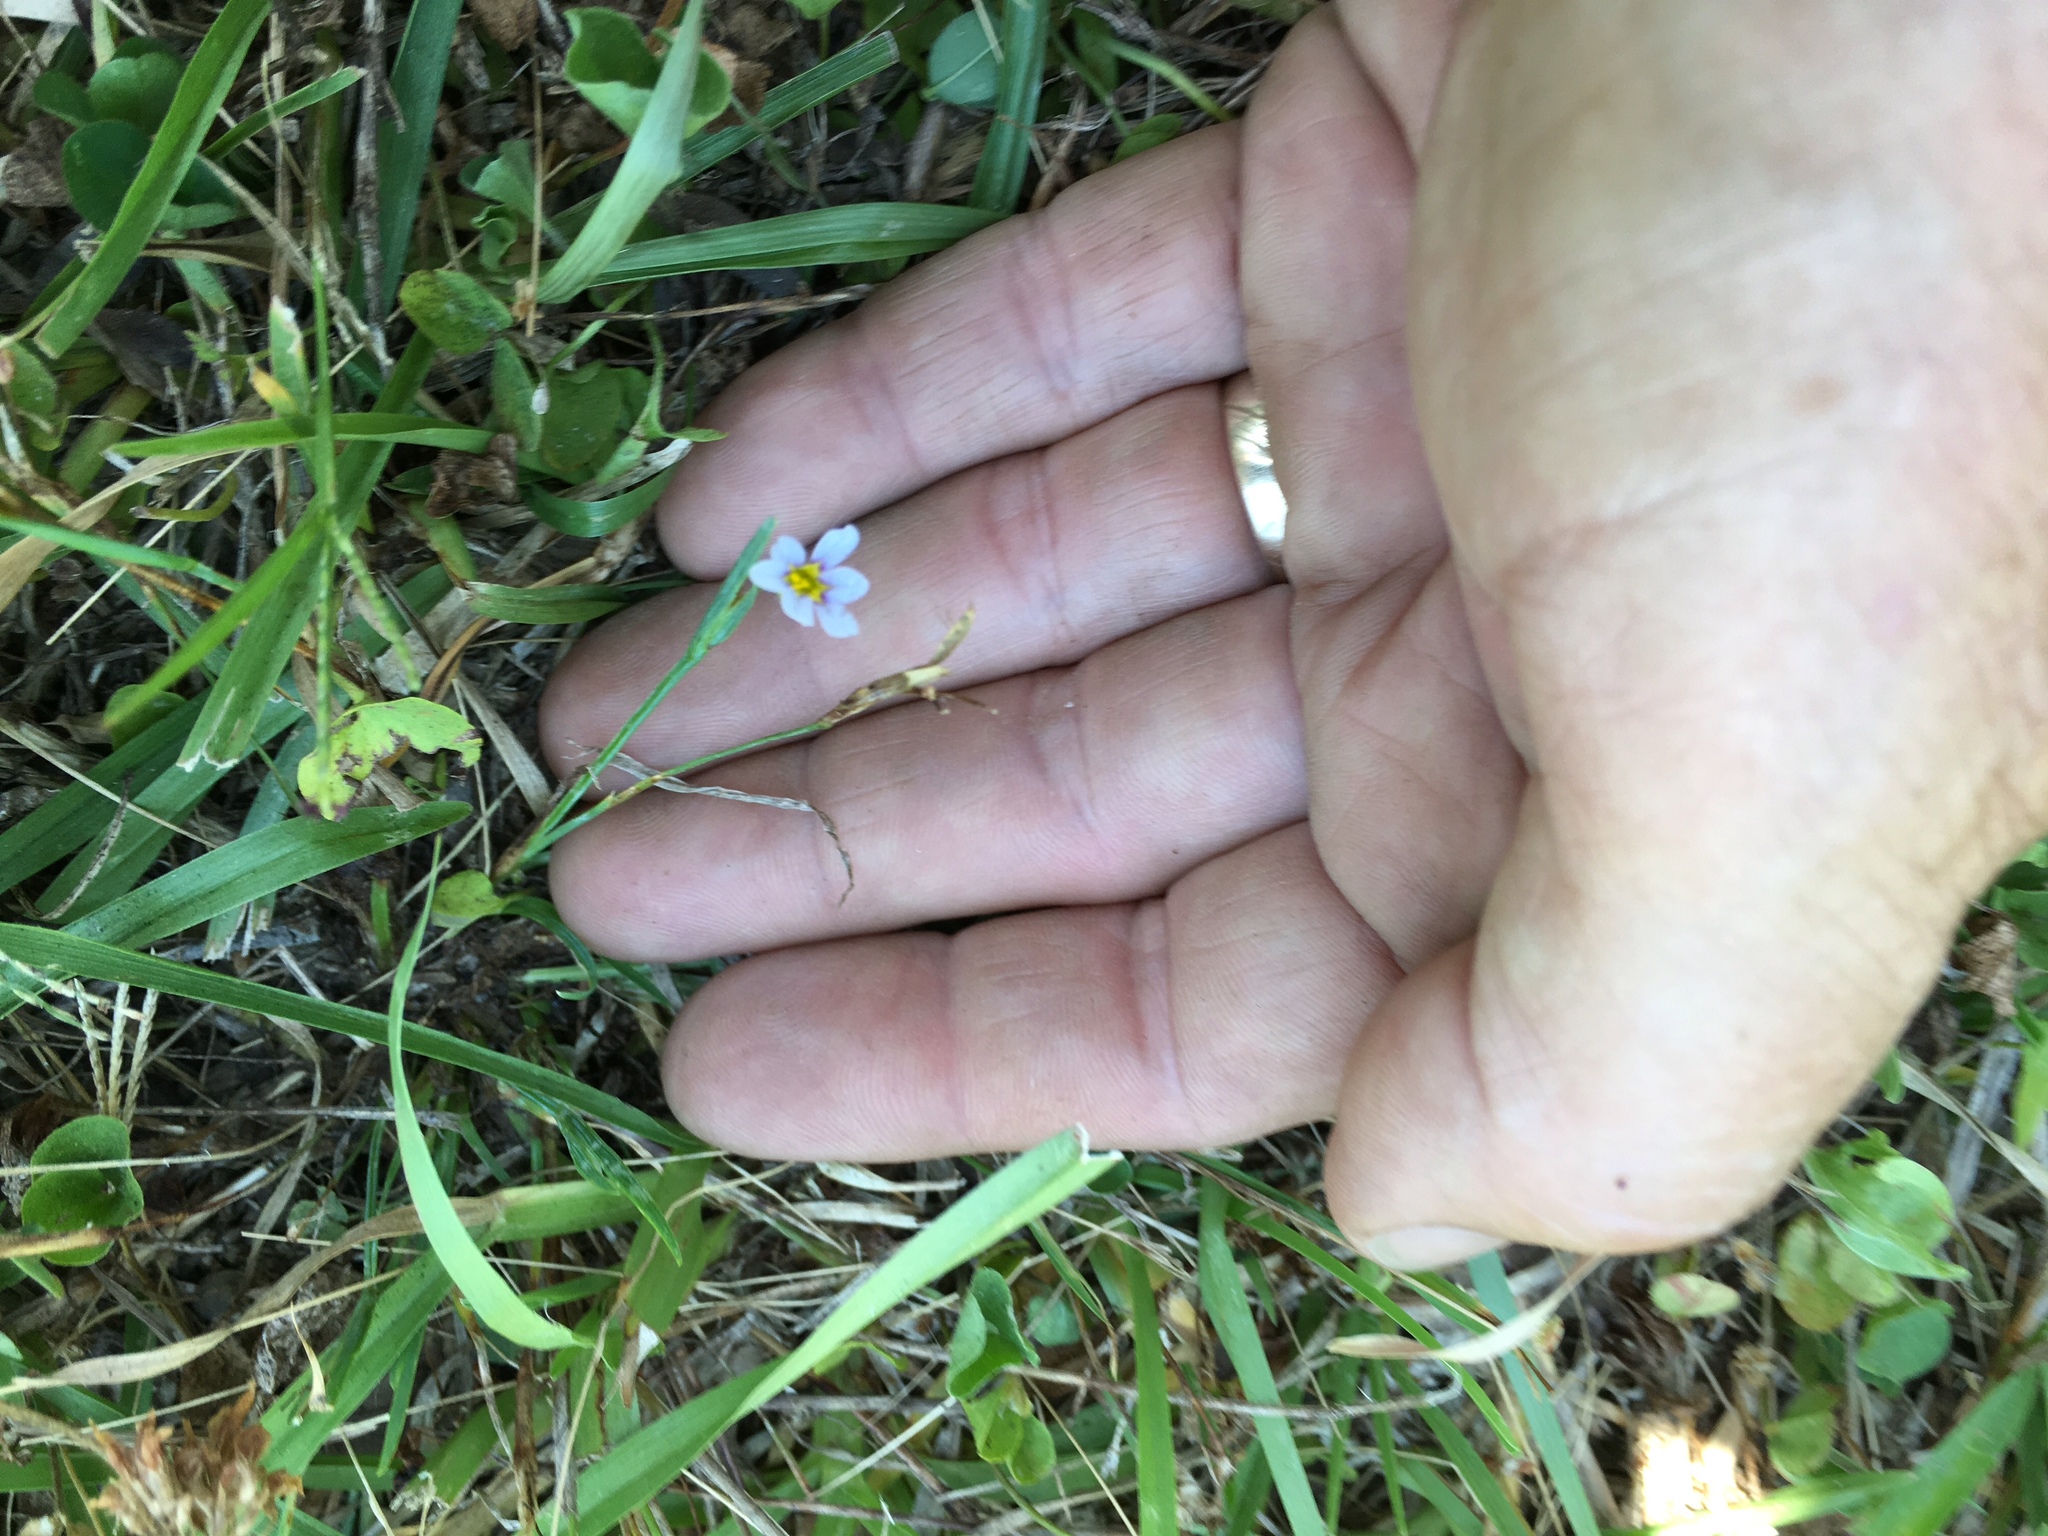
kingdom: Plantae
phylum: Tracheophyta
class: Liliopsida
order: Asparagales
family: Iridaceae
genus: Sisyrinchium
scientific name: Sisyrinchium micranthum
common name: Bermuda pigroot
